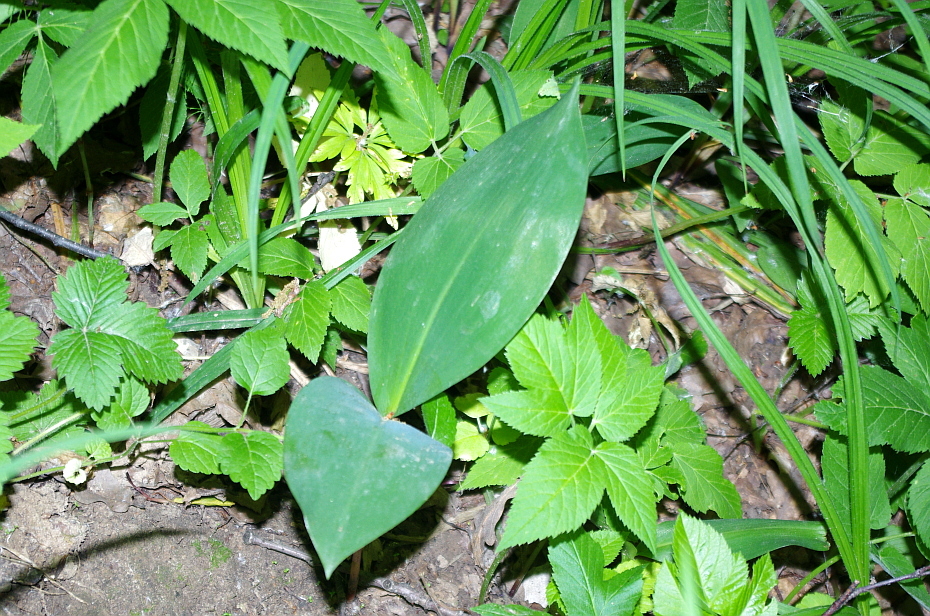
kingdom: Plantae
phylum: Tracheophyta
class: Liliopsida
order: Asparagales
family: Asparagaceae
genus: Convallaria
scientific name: Convallaria majalis
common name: Lily-of-the-valley
